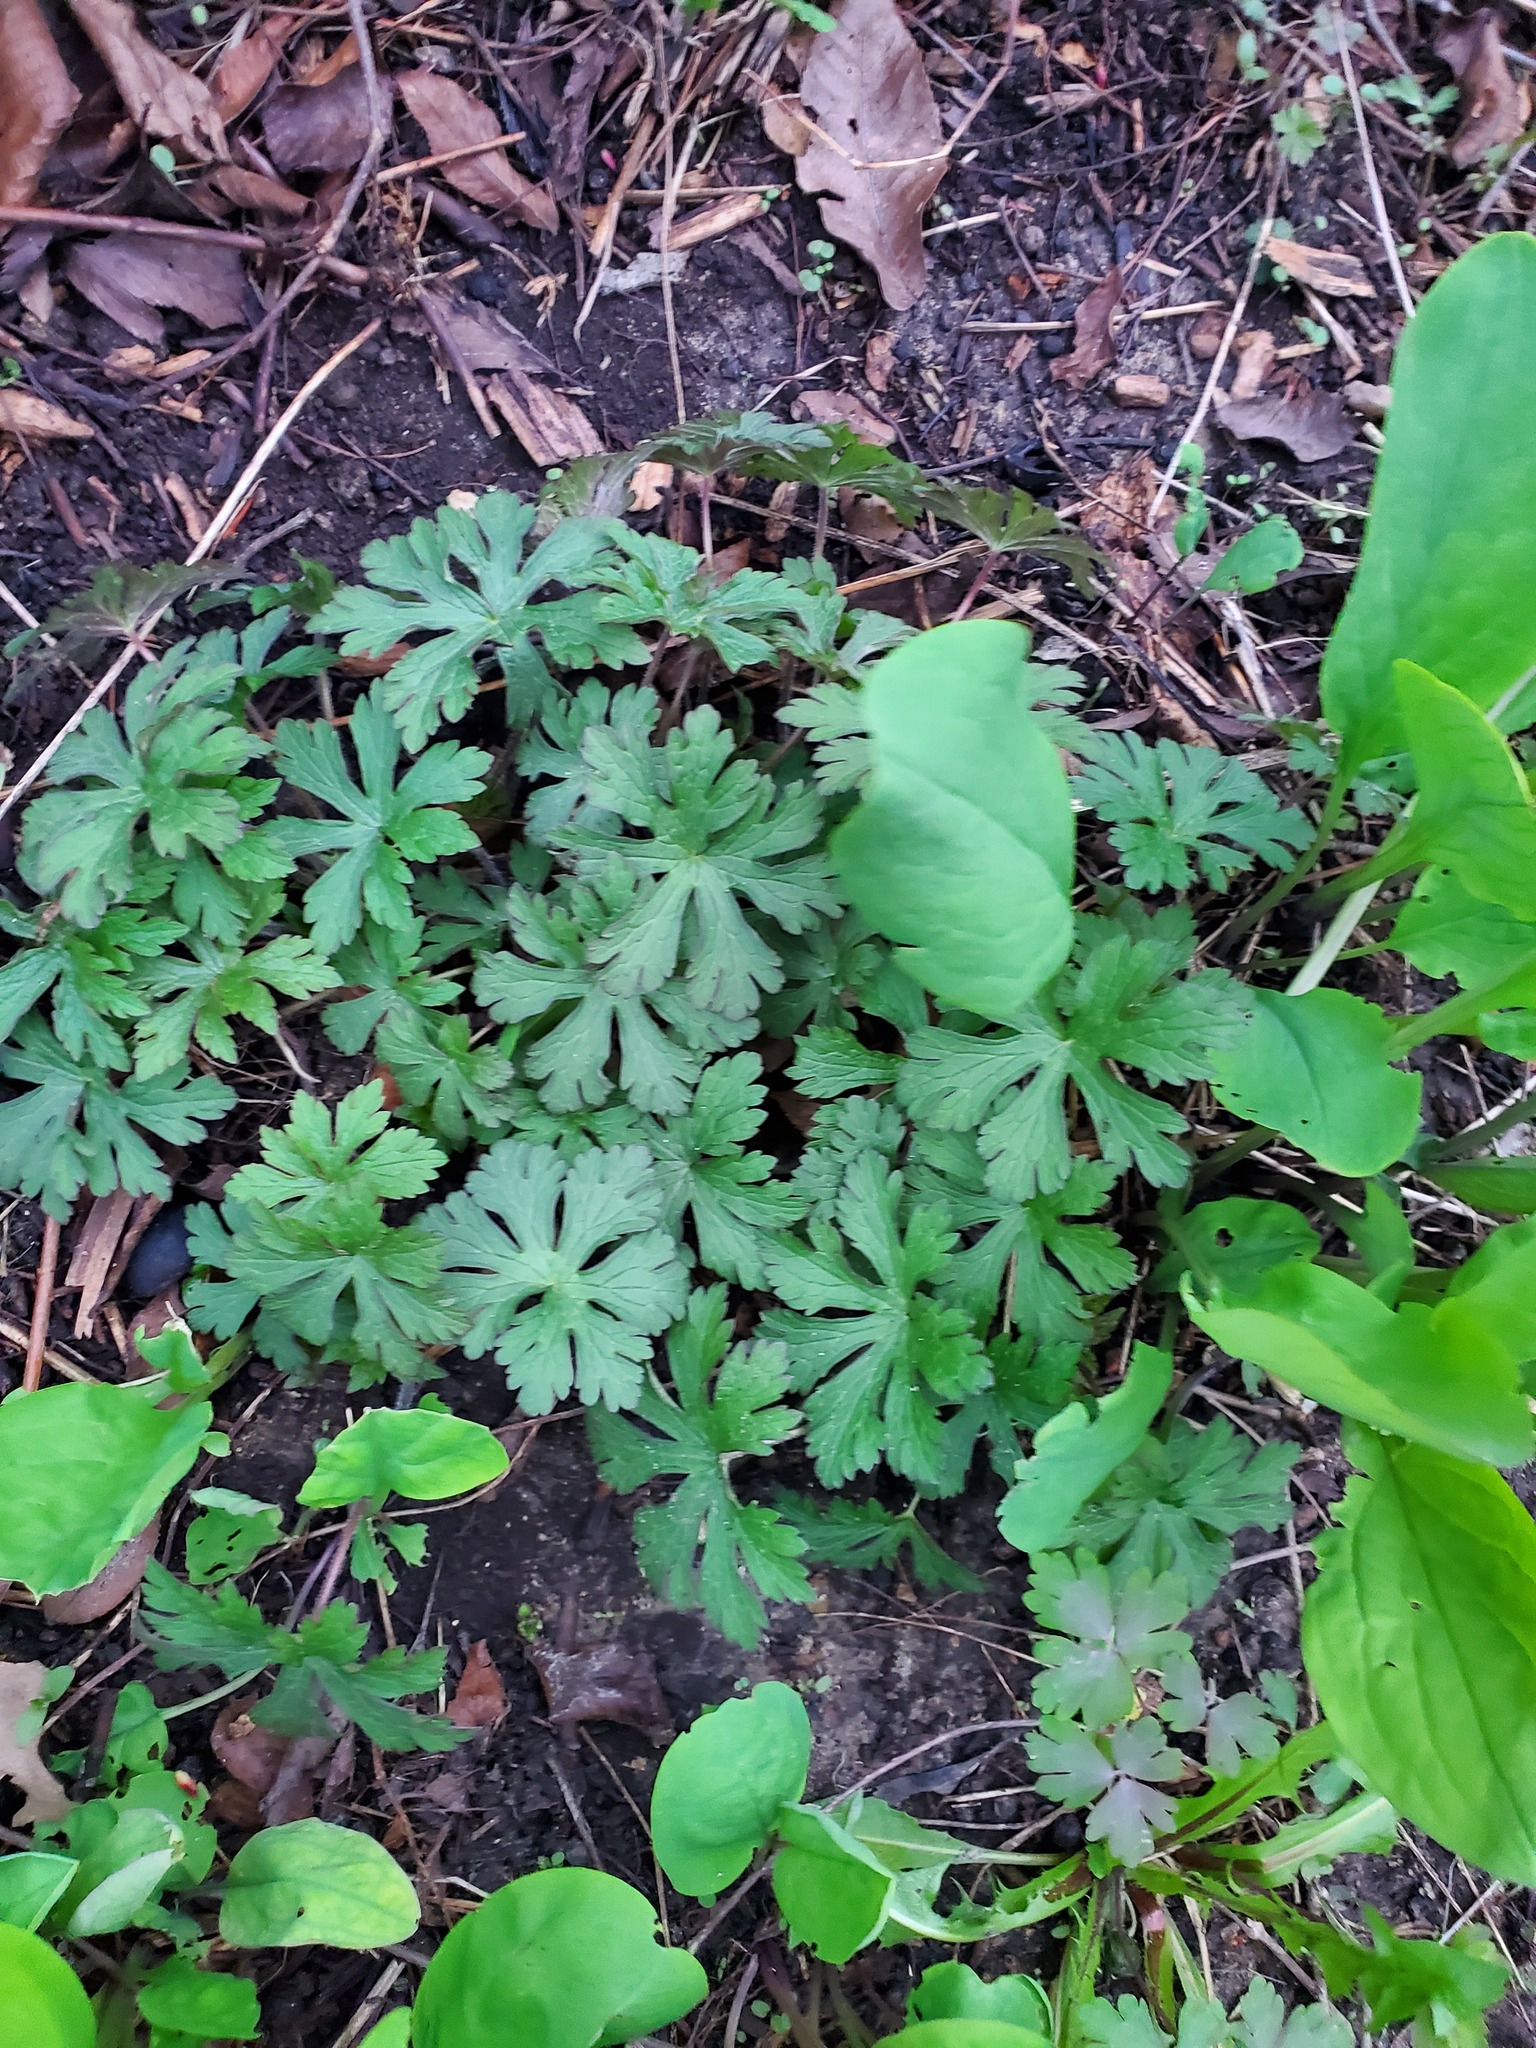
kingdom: Plantae
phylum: Tracheophyta
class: Magnoliopsida
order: Geraniales
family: Geraniaceae
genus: Geranium
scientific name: Geranium maculatum
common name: Spotted geranium
